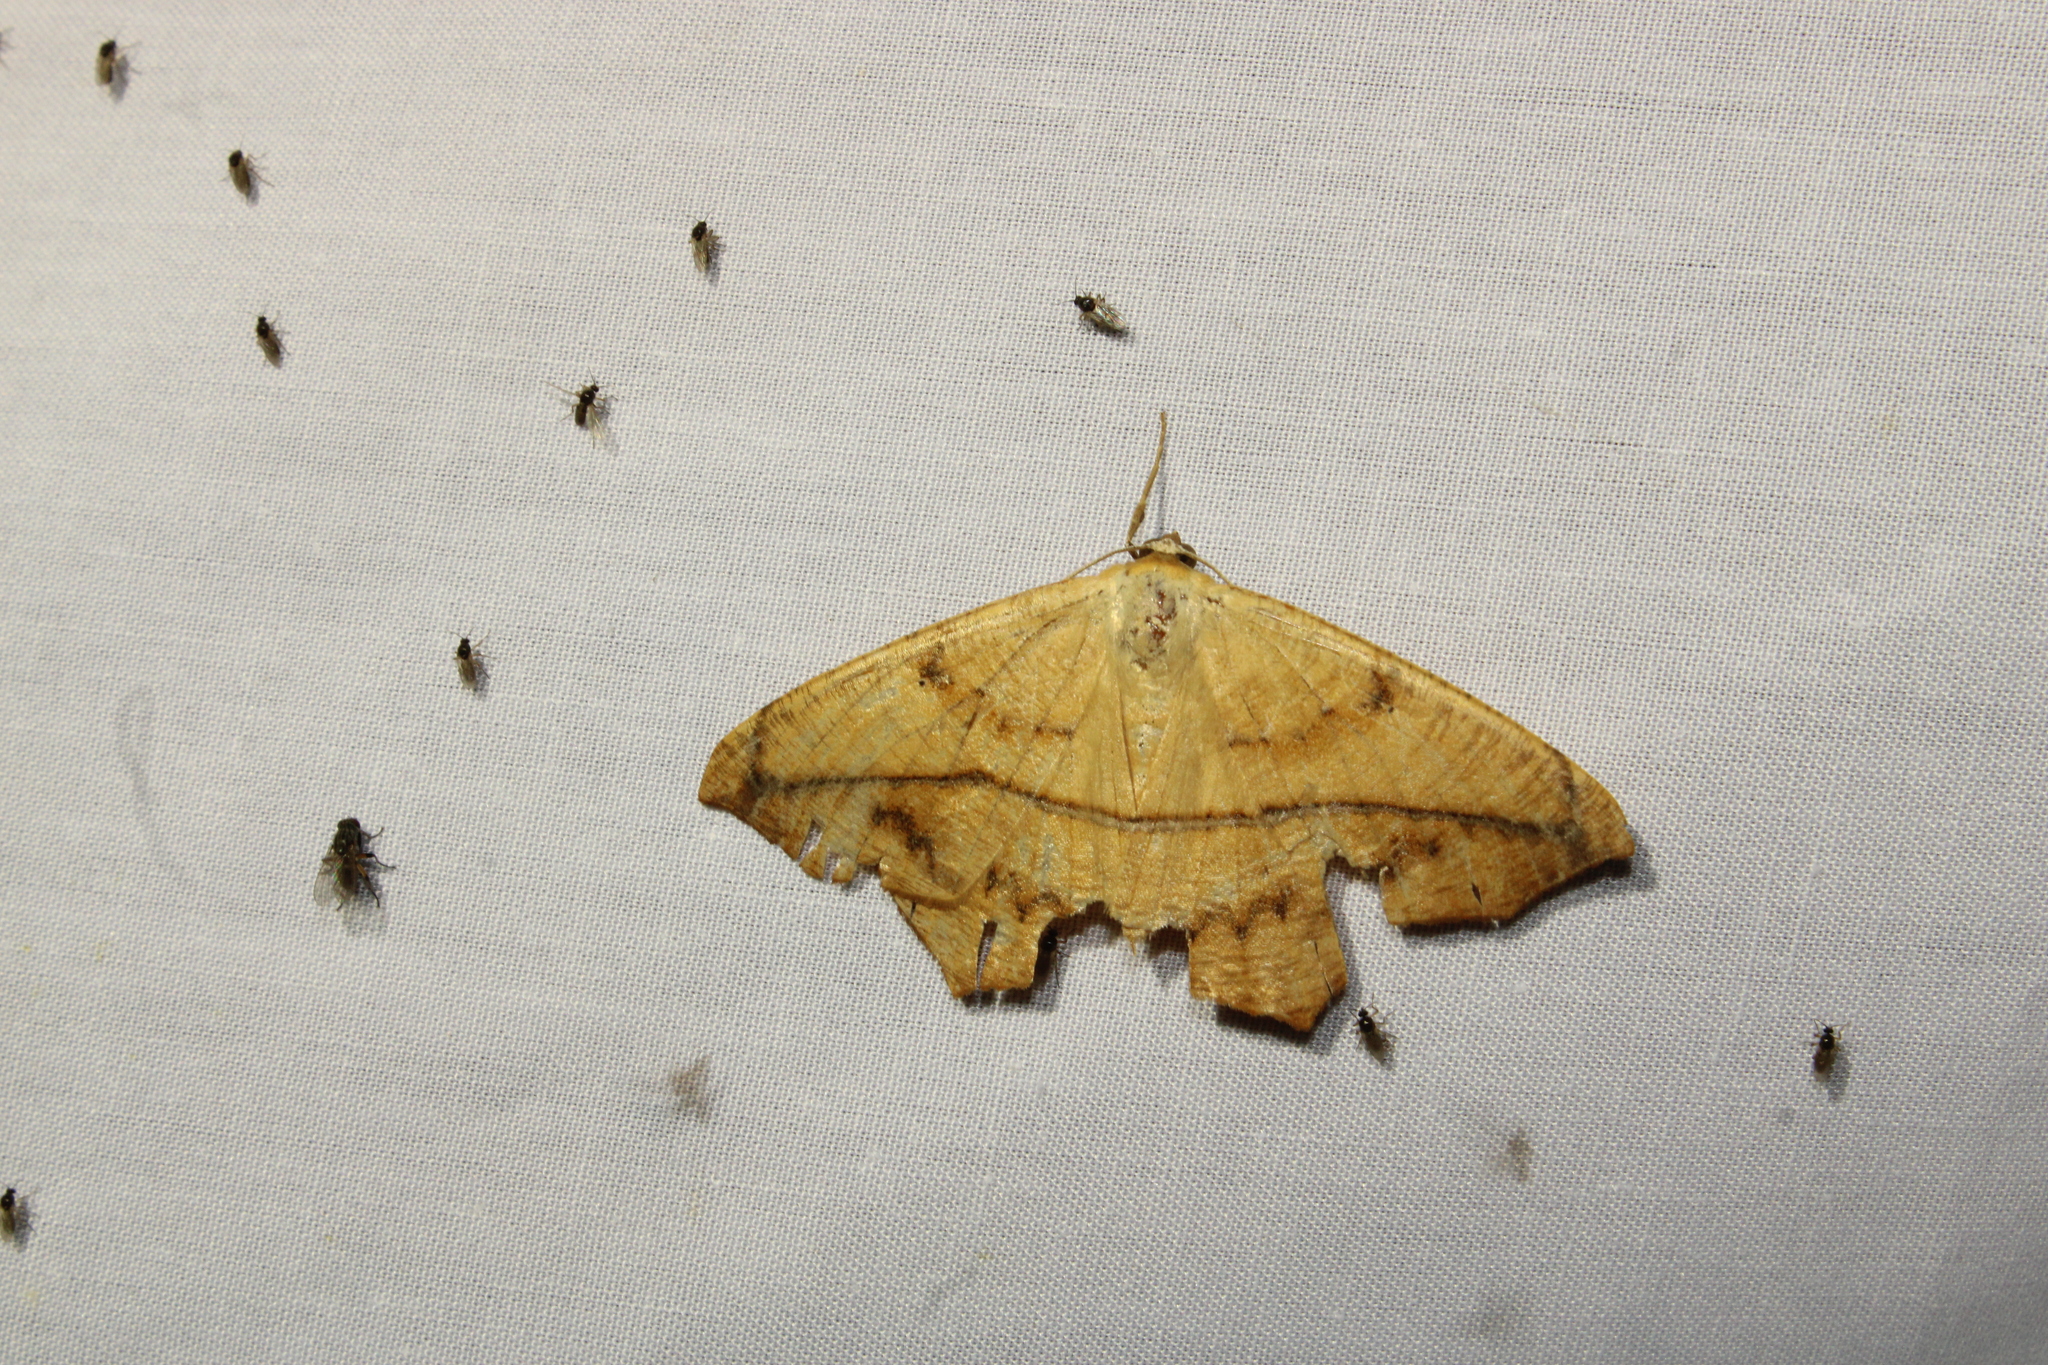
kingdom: Animalia
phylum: Arthropoda
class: Insecta
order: Lepidoptera
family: Geometridae
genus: Prochoerodes
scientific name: Prochoerodes lineola
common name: Large maple spanworm
